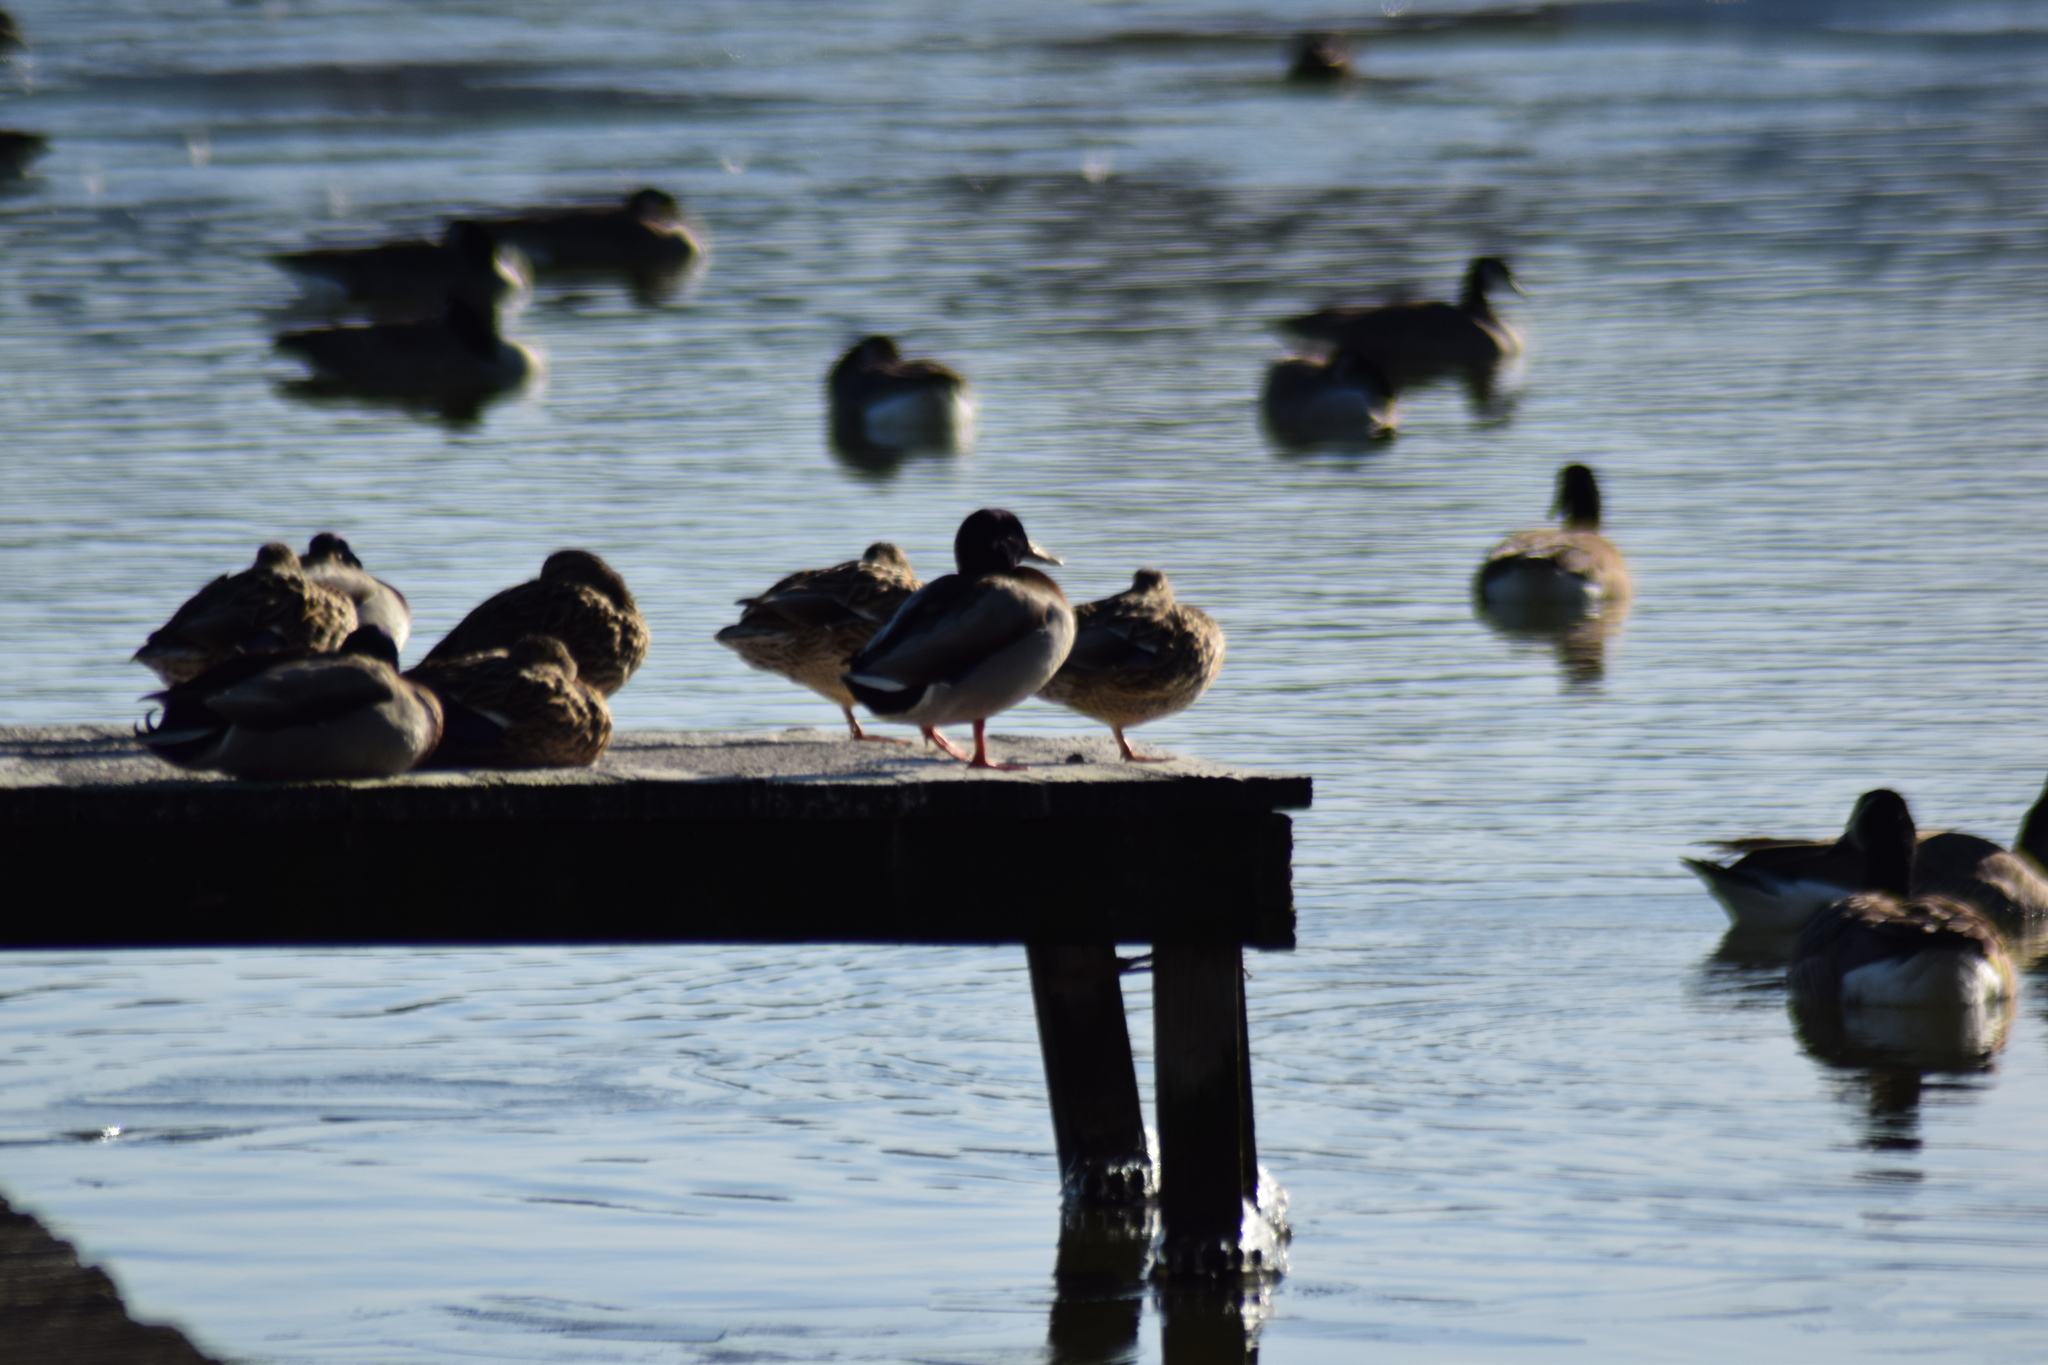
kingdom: Animalia
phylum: Chordata
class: Aves
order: Anseriformes
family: Anatidae
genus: Anas
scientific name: Anas platyrhynchos
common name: Mallard
